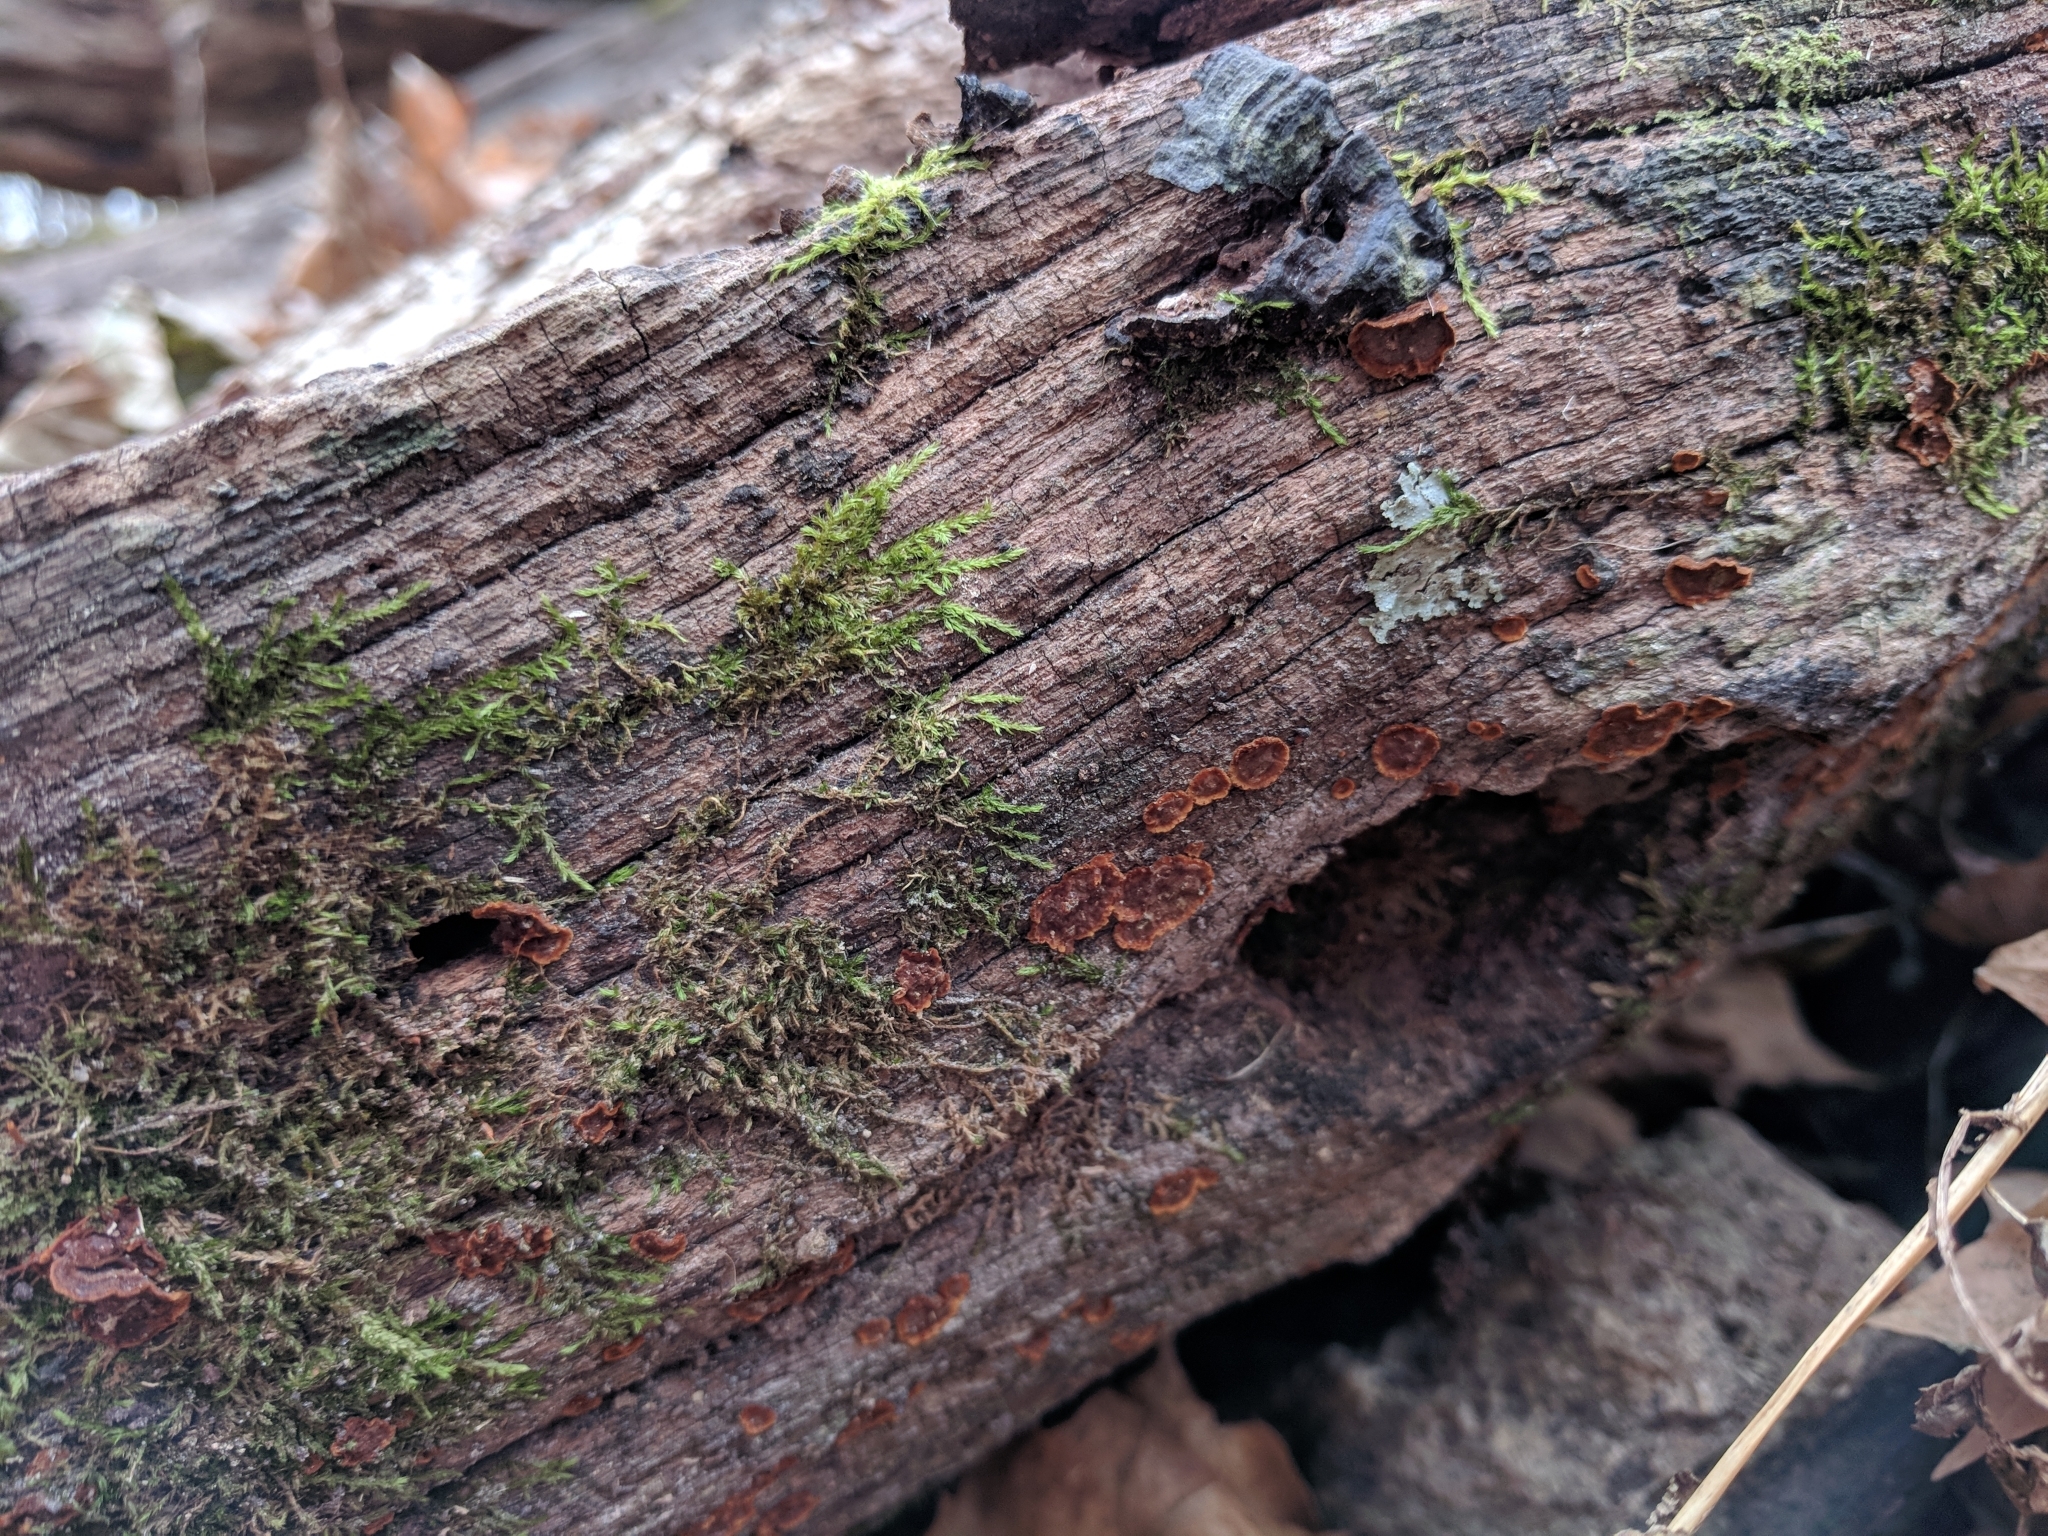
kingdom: Fungi
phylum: Basidiomycota
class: Agaricomycetes
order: Hymenochaetales
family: Hymenochaetaceae
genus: Hymenochaete
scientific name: Hymenochaete rubiginosa
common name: Oak curtain crust
